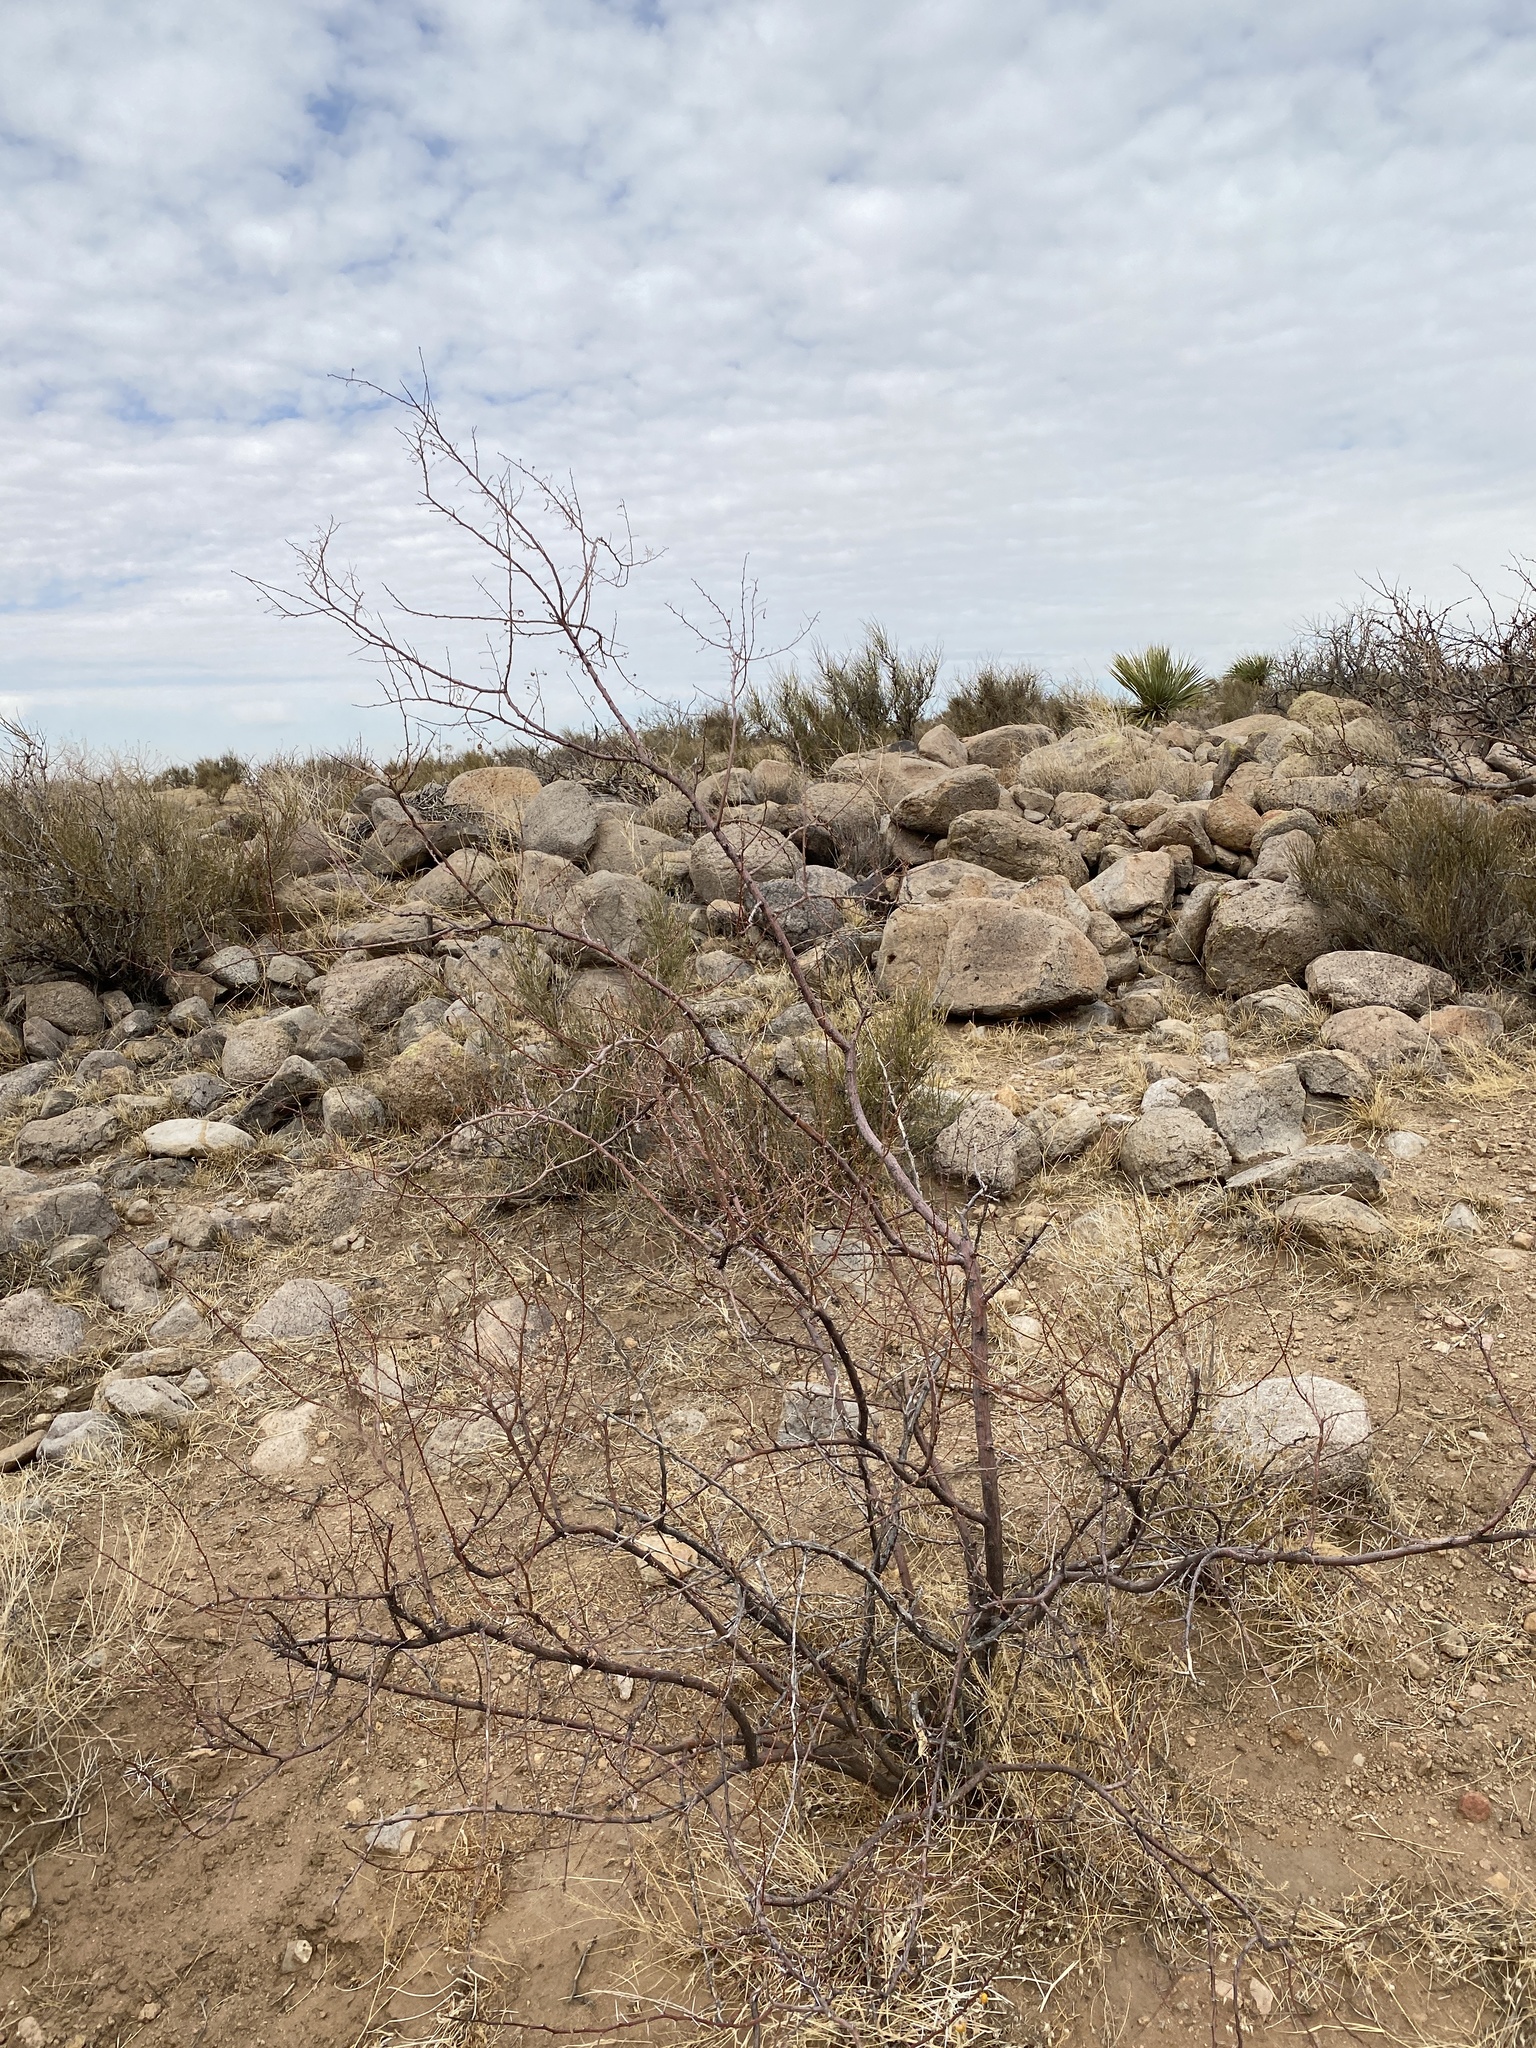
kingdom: Plantae
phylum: Tracheophyta
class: Magnoliopsida
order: Fabales
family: Fabaceae
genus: Vachellia
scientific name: Vachellia constricta
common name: Mescat acacia
